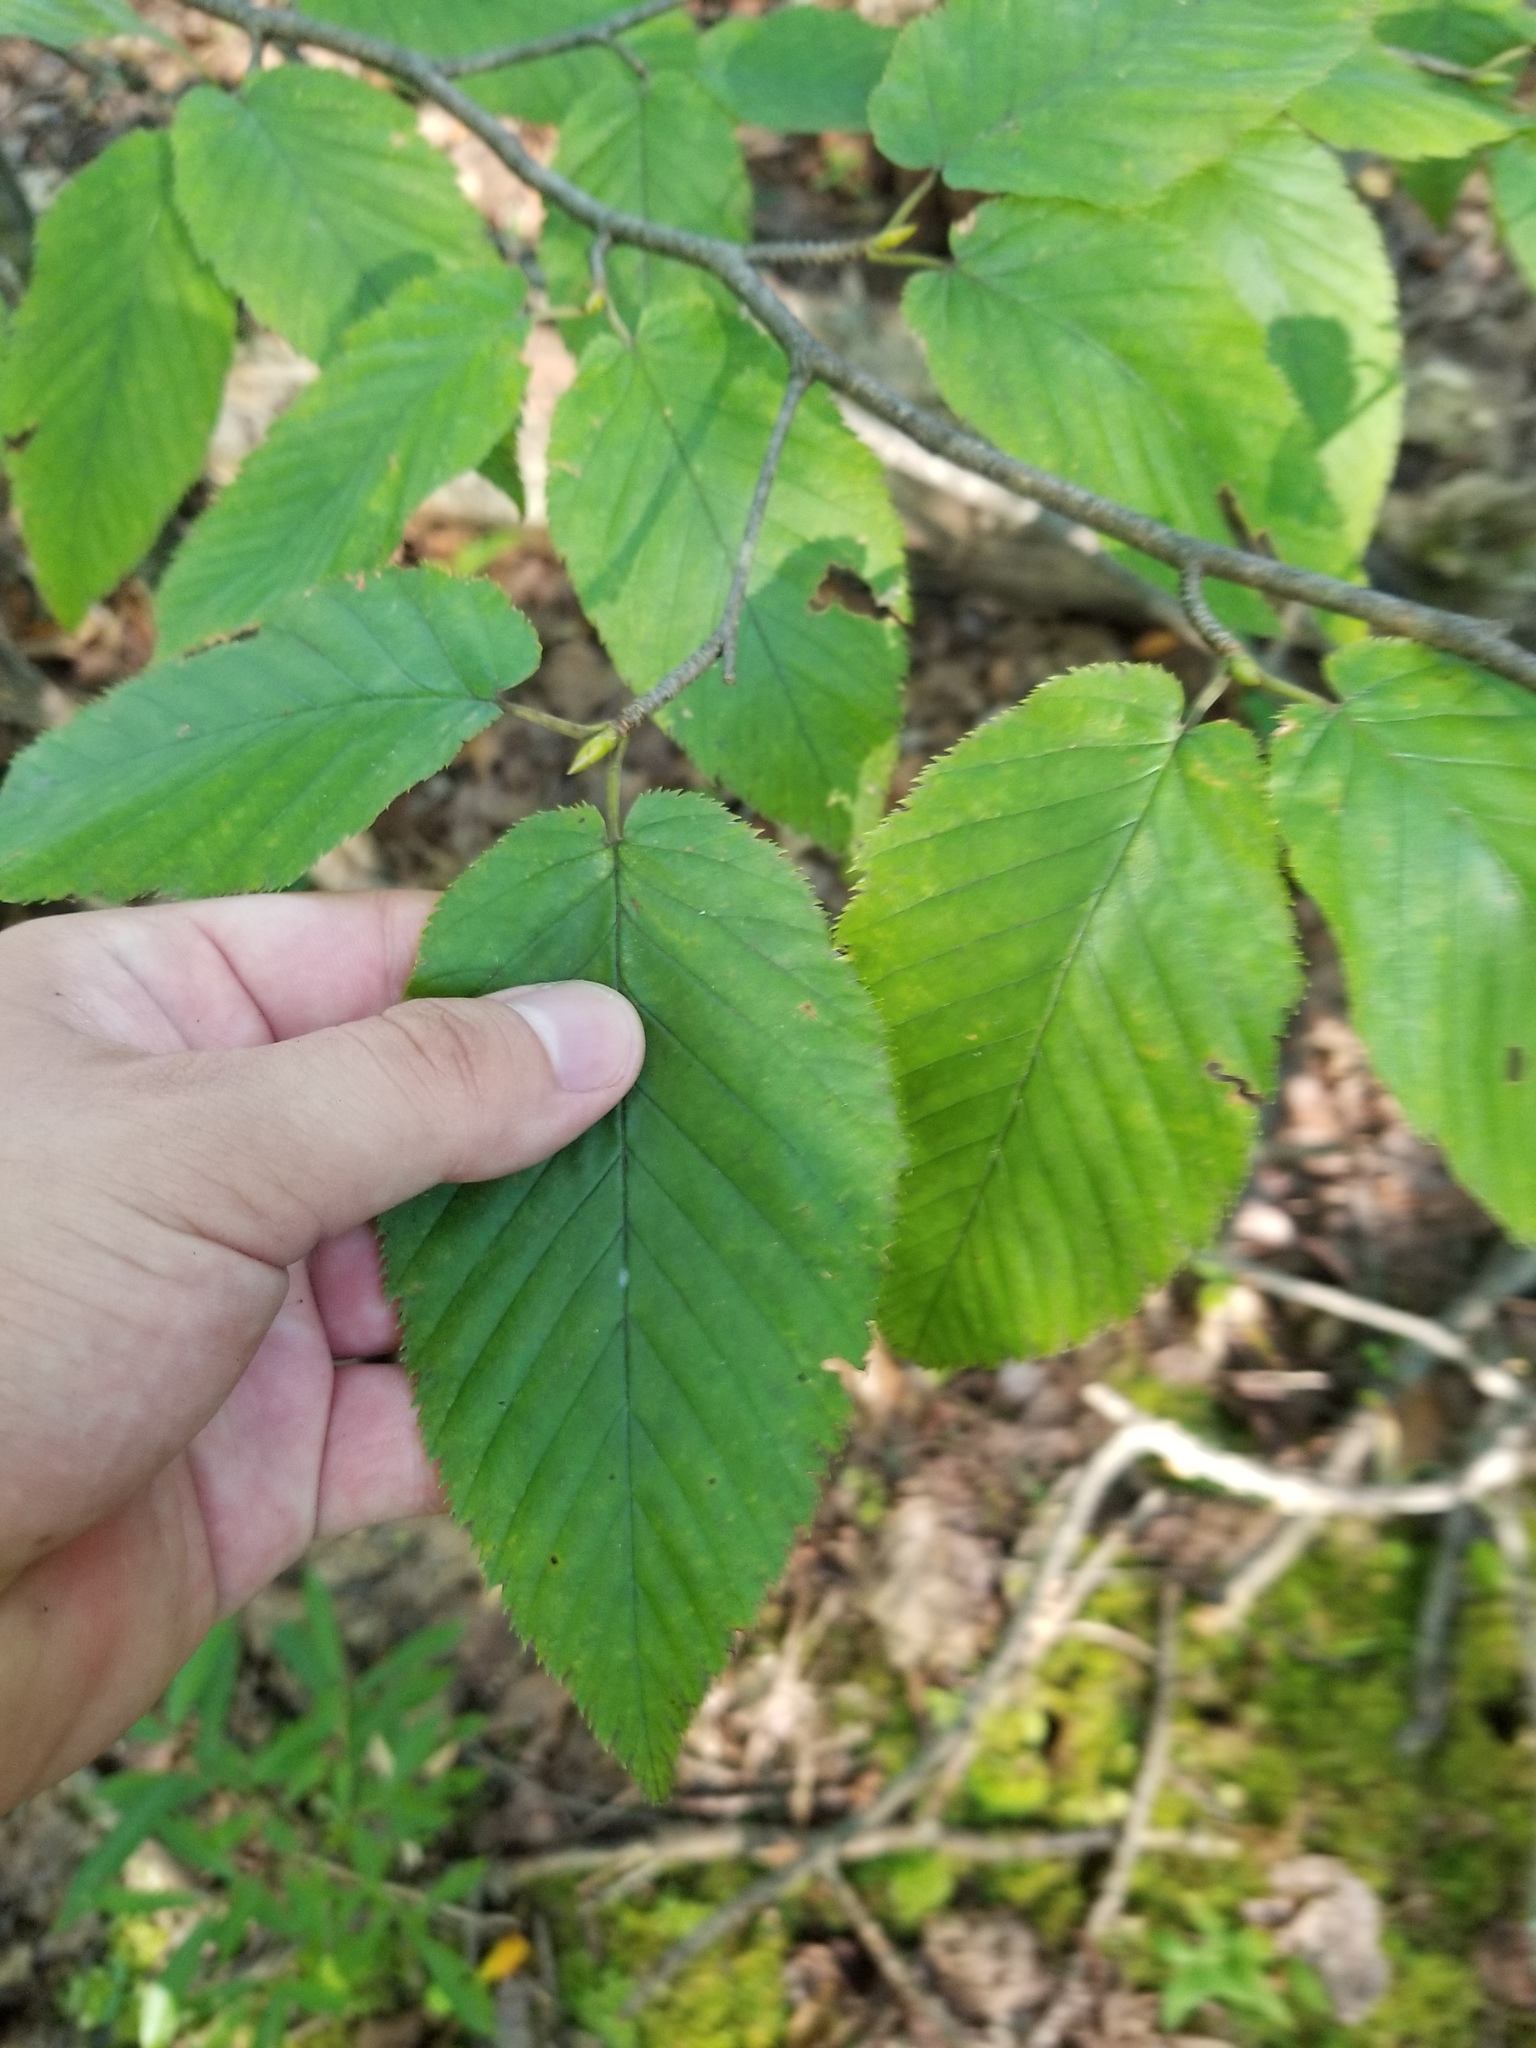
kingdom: Plantae
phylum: Tracheophyta
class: Magnoliopsida
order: Fagales
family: Betulaceae
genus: Betula
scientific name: Betula lenta
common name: Black birch
